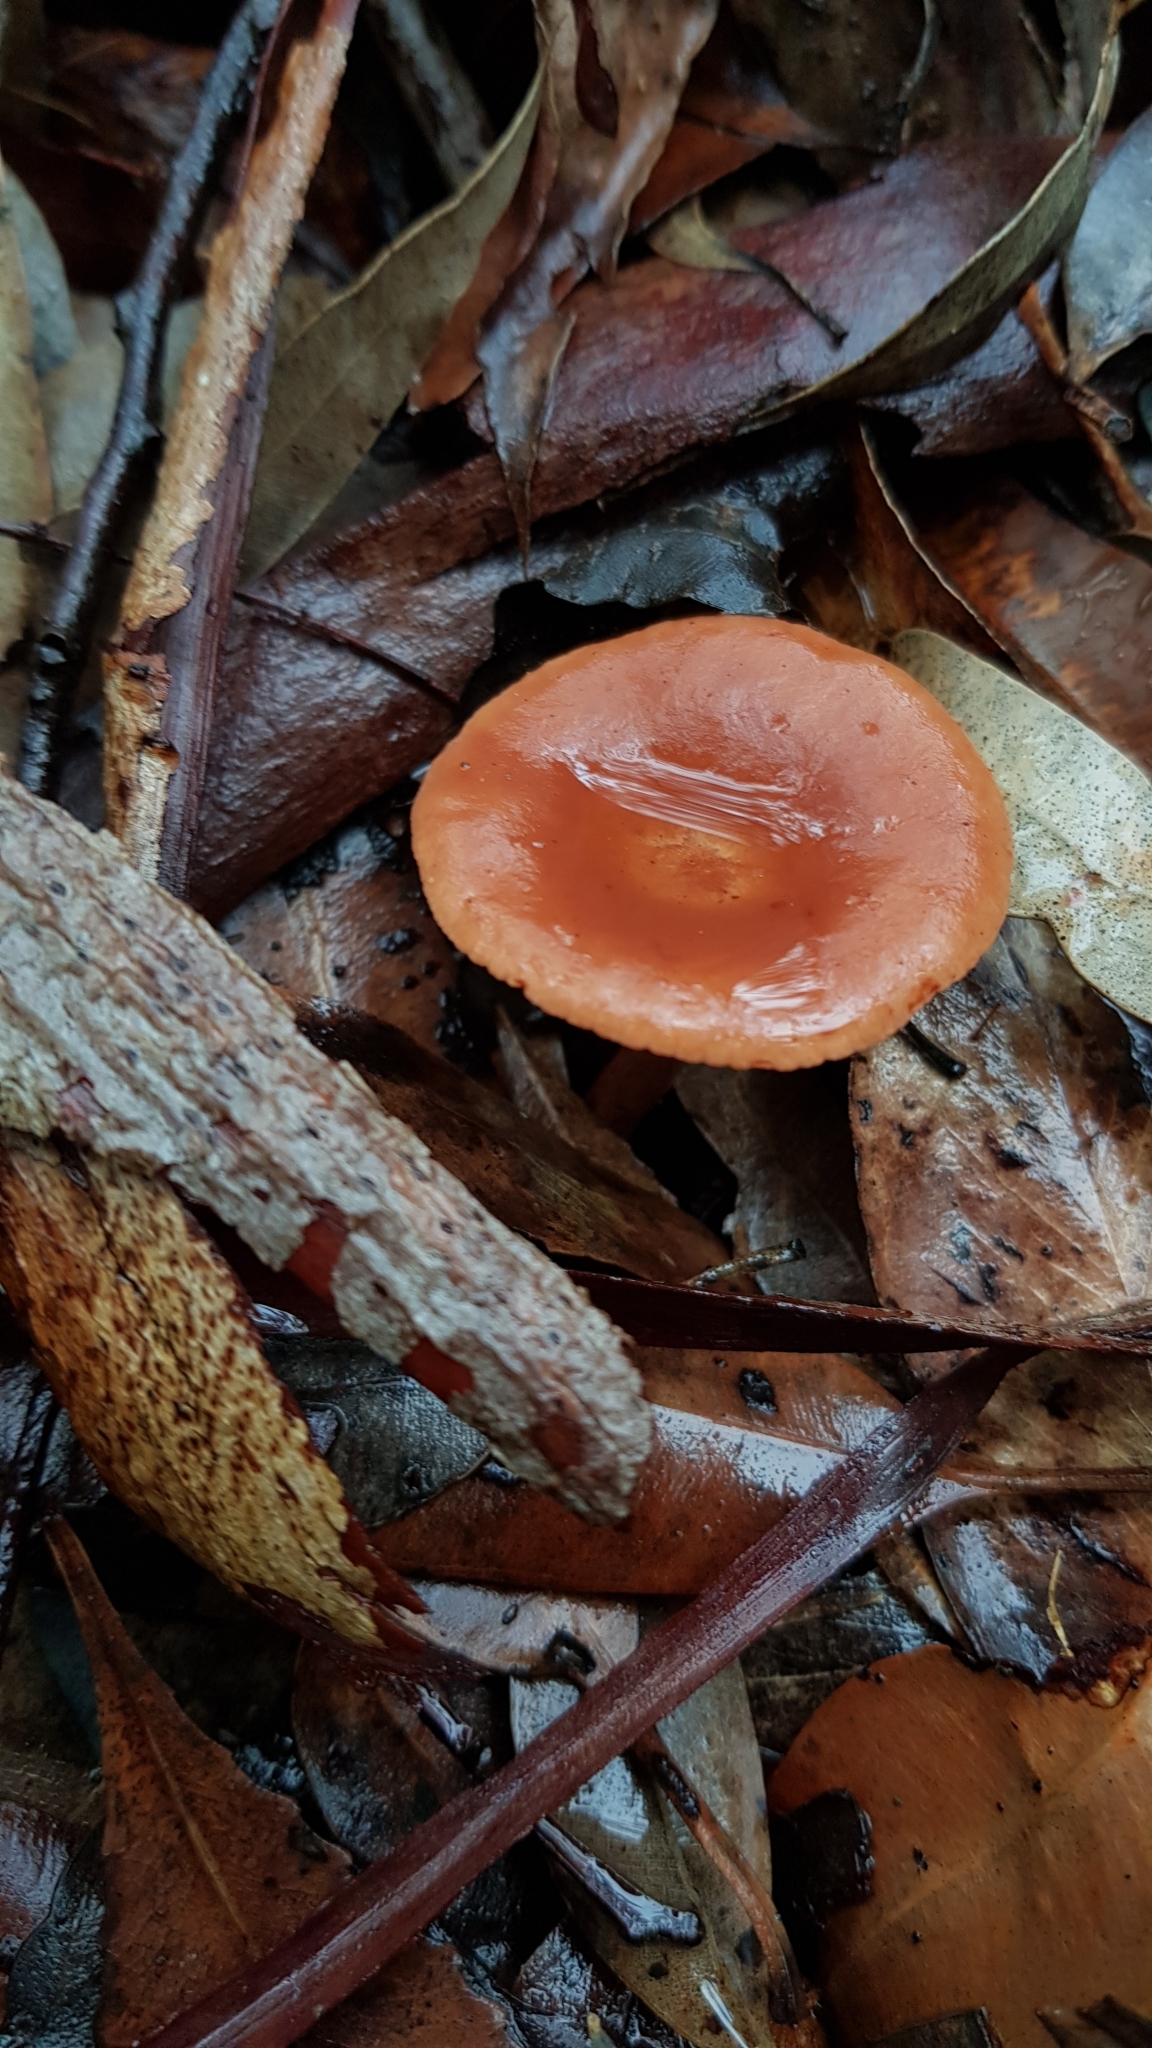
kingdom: Fungi
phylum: Basidiomycota
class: Agaricomycetes
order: Russulales
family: Russulaceae
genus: Lactarius
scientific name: Lactarius eucalypti
